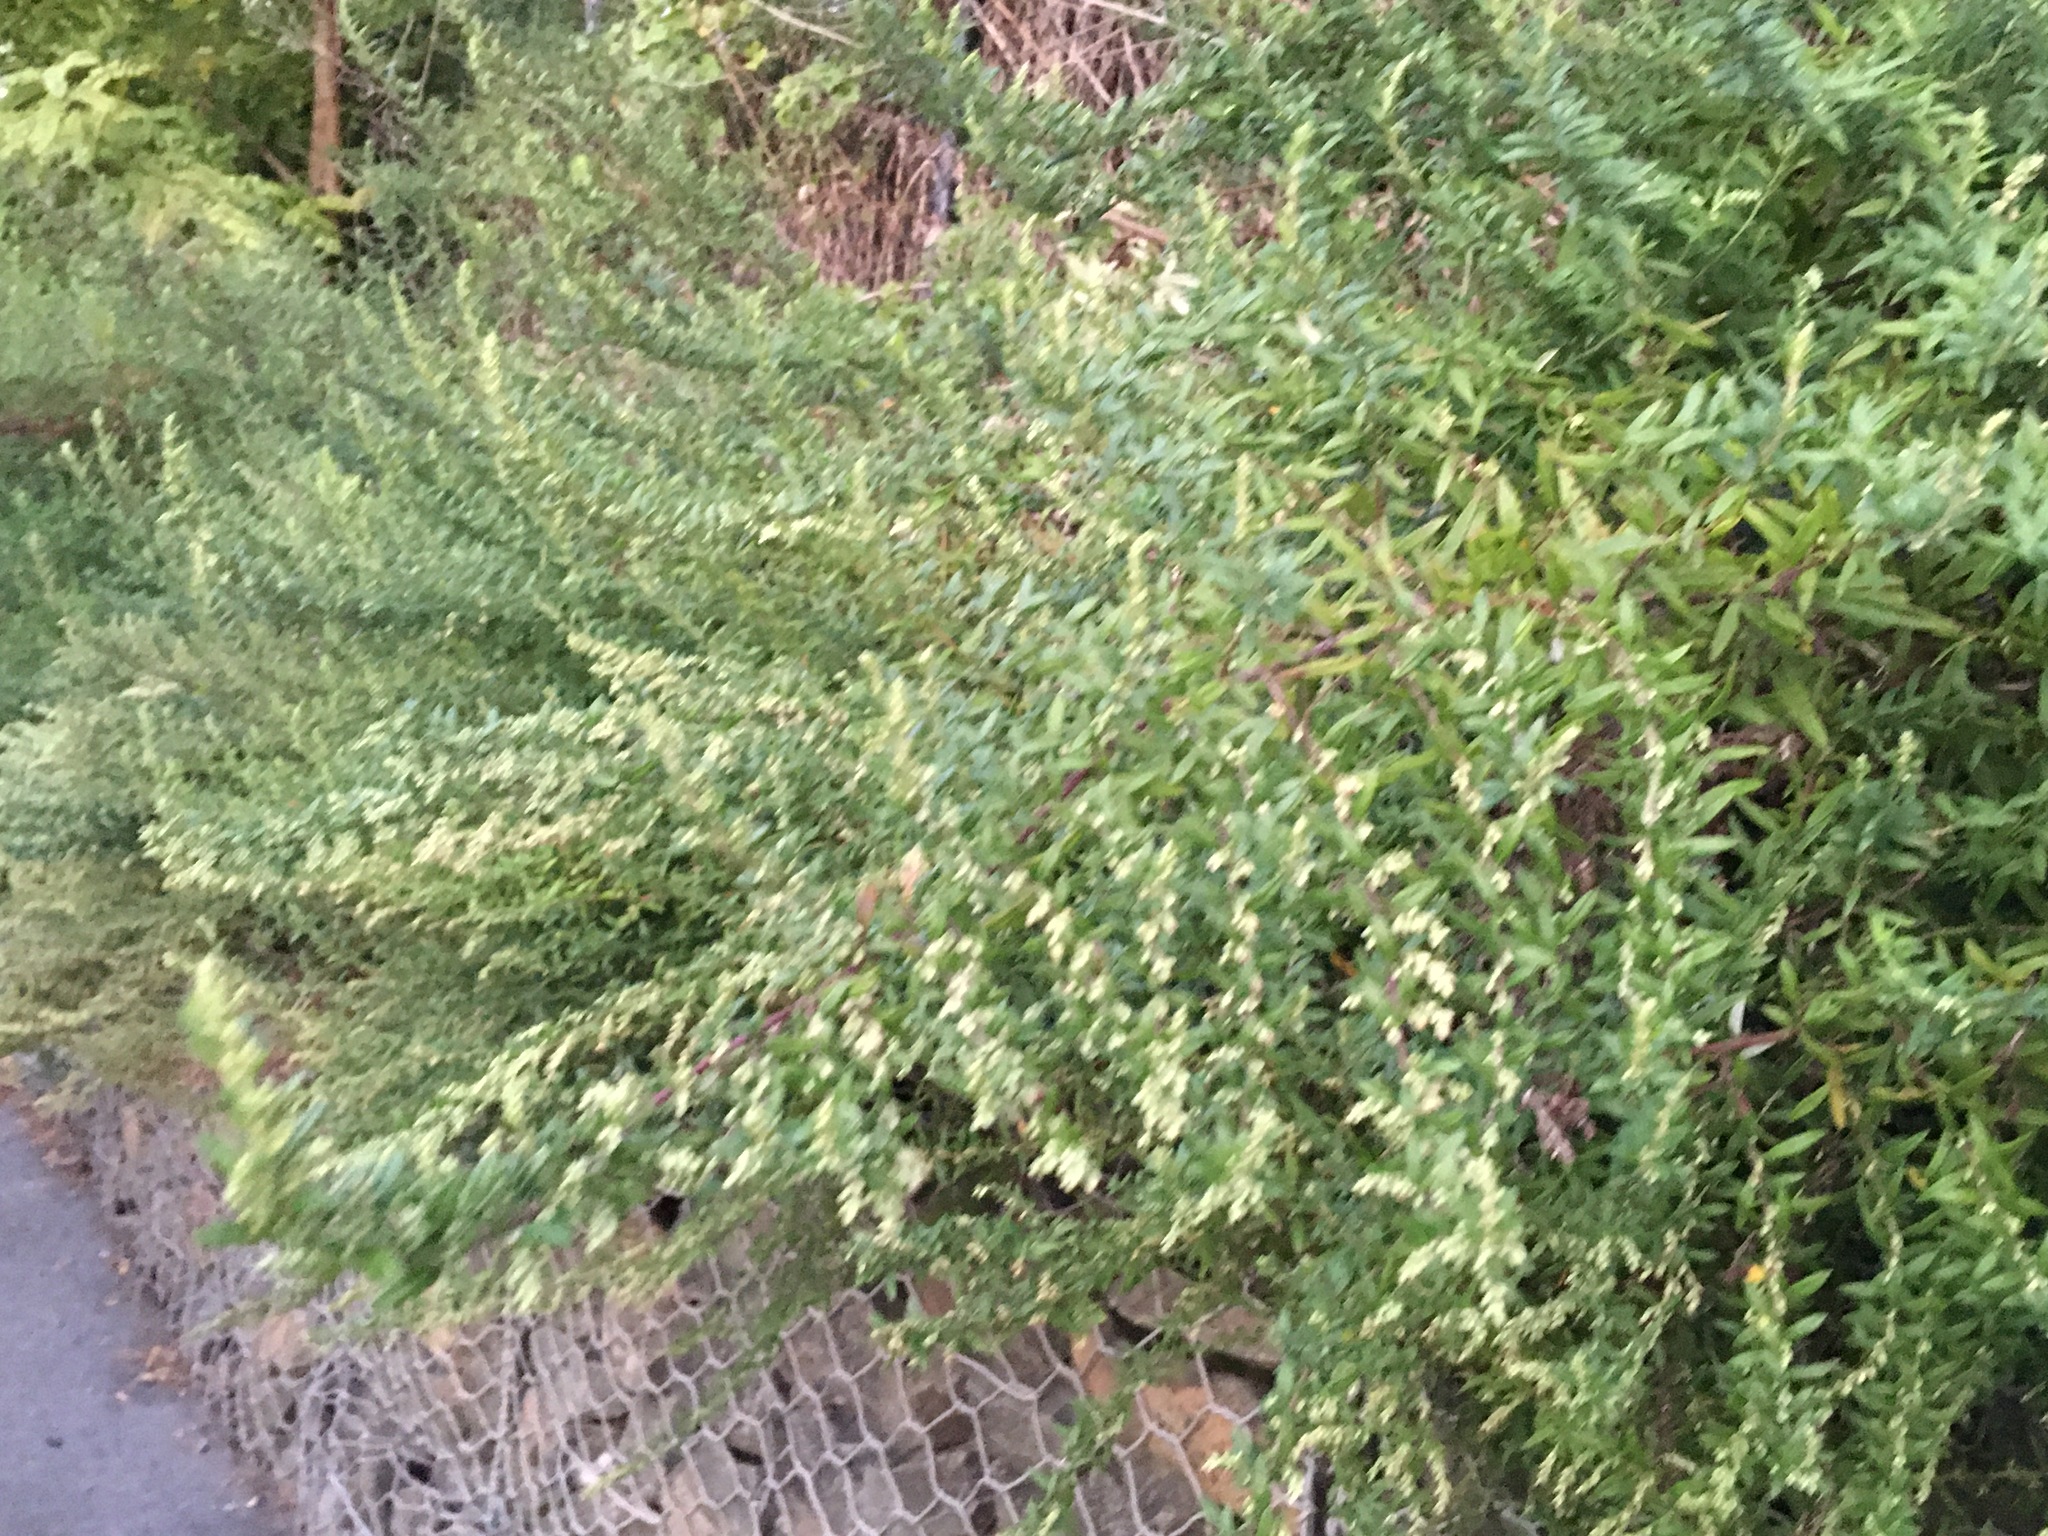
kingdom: Plantae
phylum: Tracheophyta
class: Magnoliopsida
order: Asterales
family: Asteraceae
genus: Artemisia
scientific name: Artemisia vulgaris
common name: Mugwort
